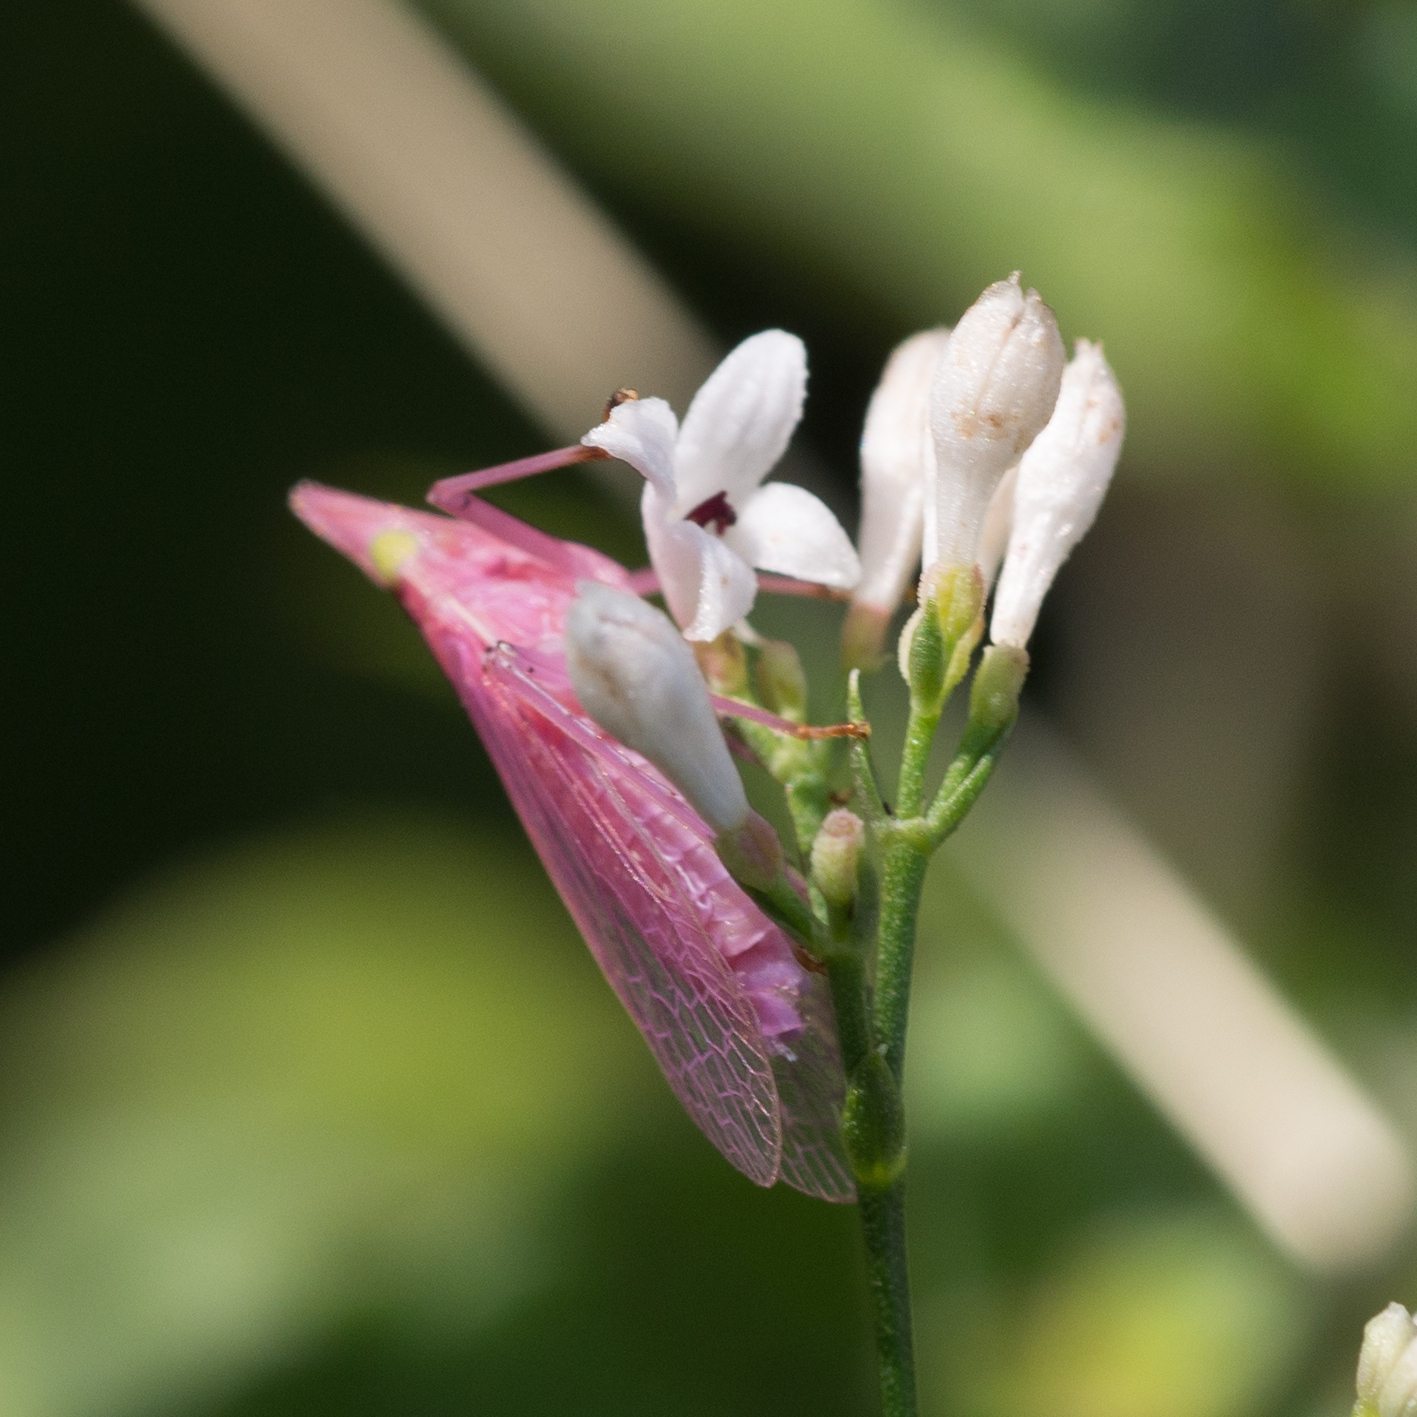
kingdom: Animalia
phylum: Arthropoda
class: Insecta
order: Hemiptera
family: Dictyopharidae
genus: Dictyophara
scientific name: Dictyophara europaea
